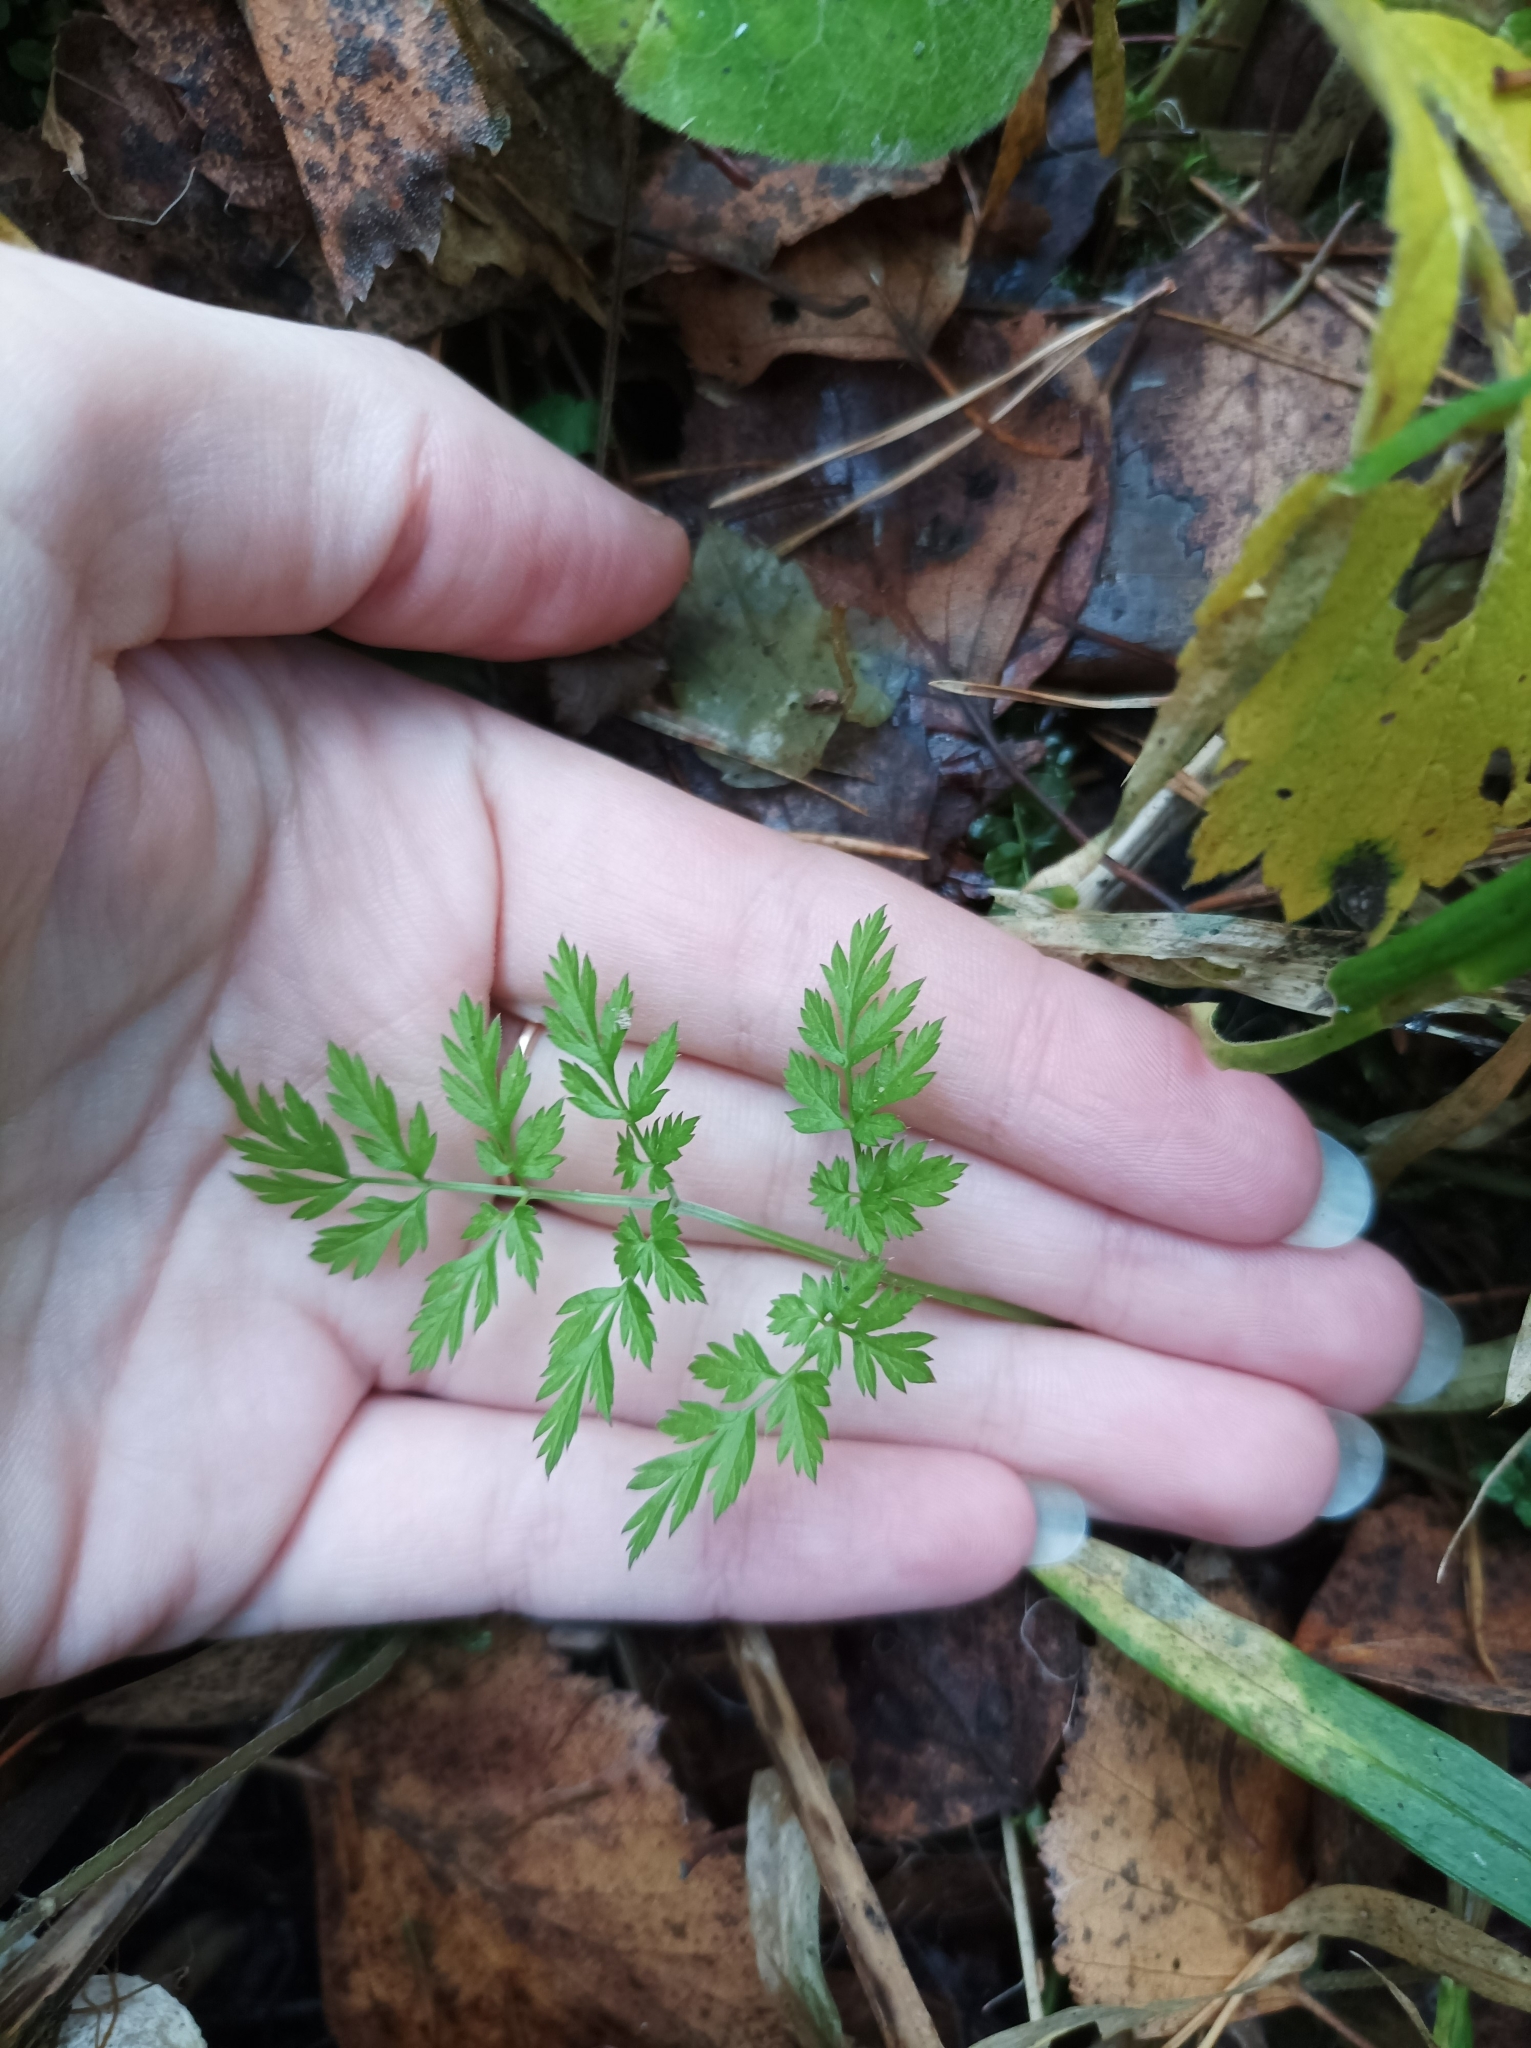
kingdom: Plantae
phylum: Tracheophyta
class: Magnoliopsida
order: Apiales
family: Apiaceae
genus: Anthriscus
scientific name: Anthriscus sylvestris
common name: Cow parsley
